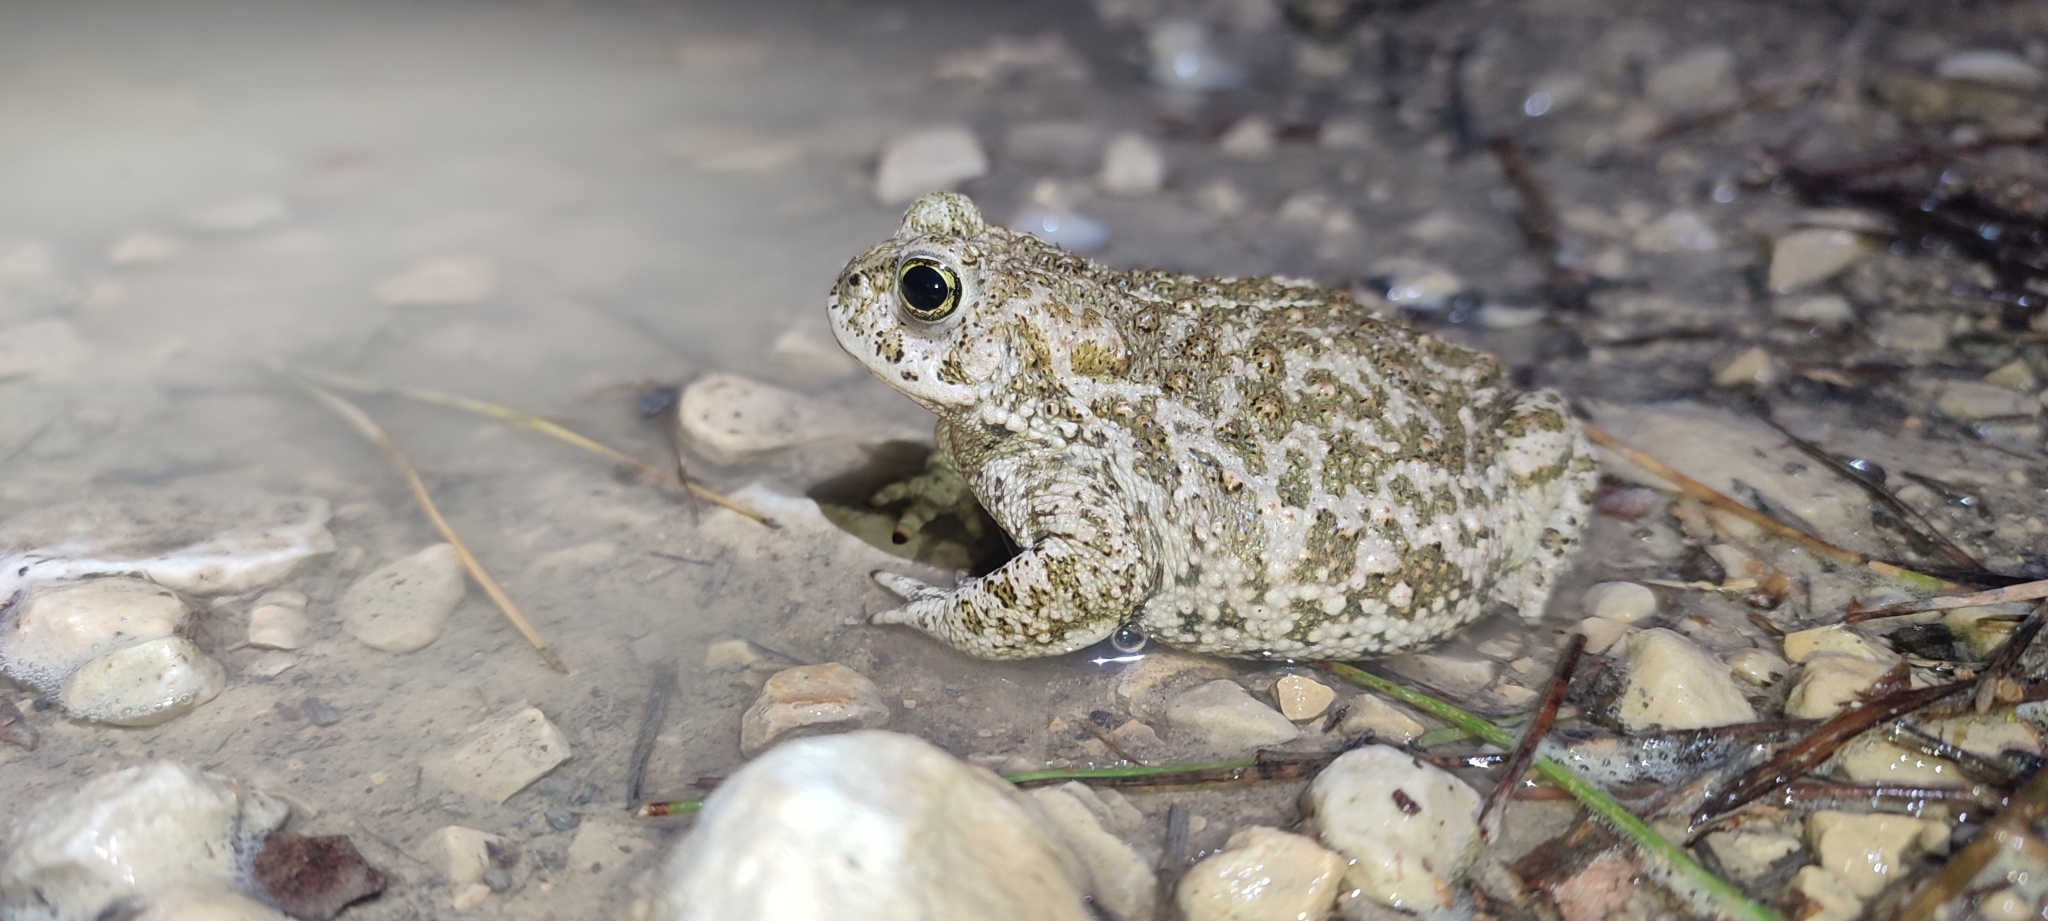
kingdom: Animalia
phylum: Chordata
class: Amphibia
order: Anura
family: Bufonidae
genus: Epidalea
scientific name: Epidalea calamita
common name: Natterjack toad
